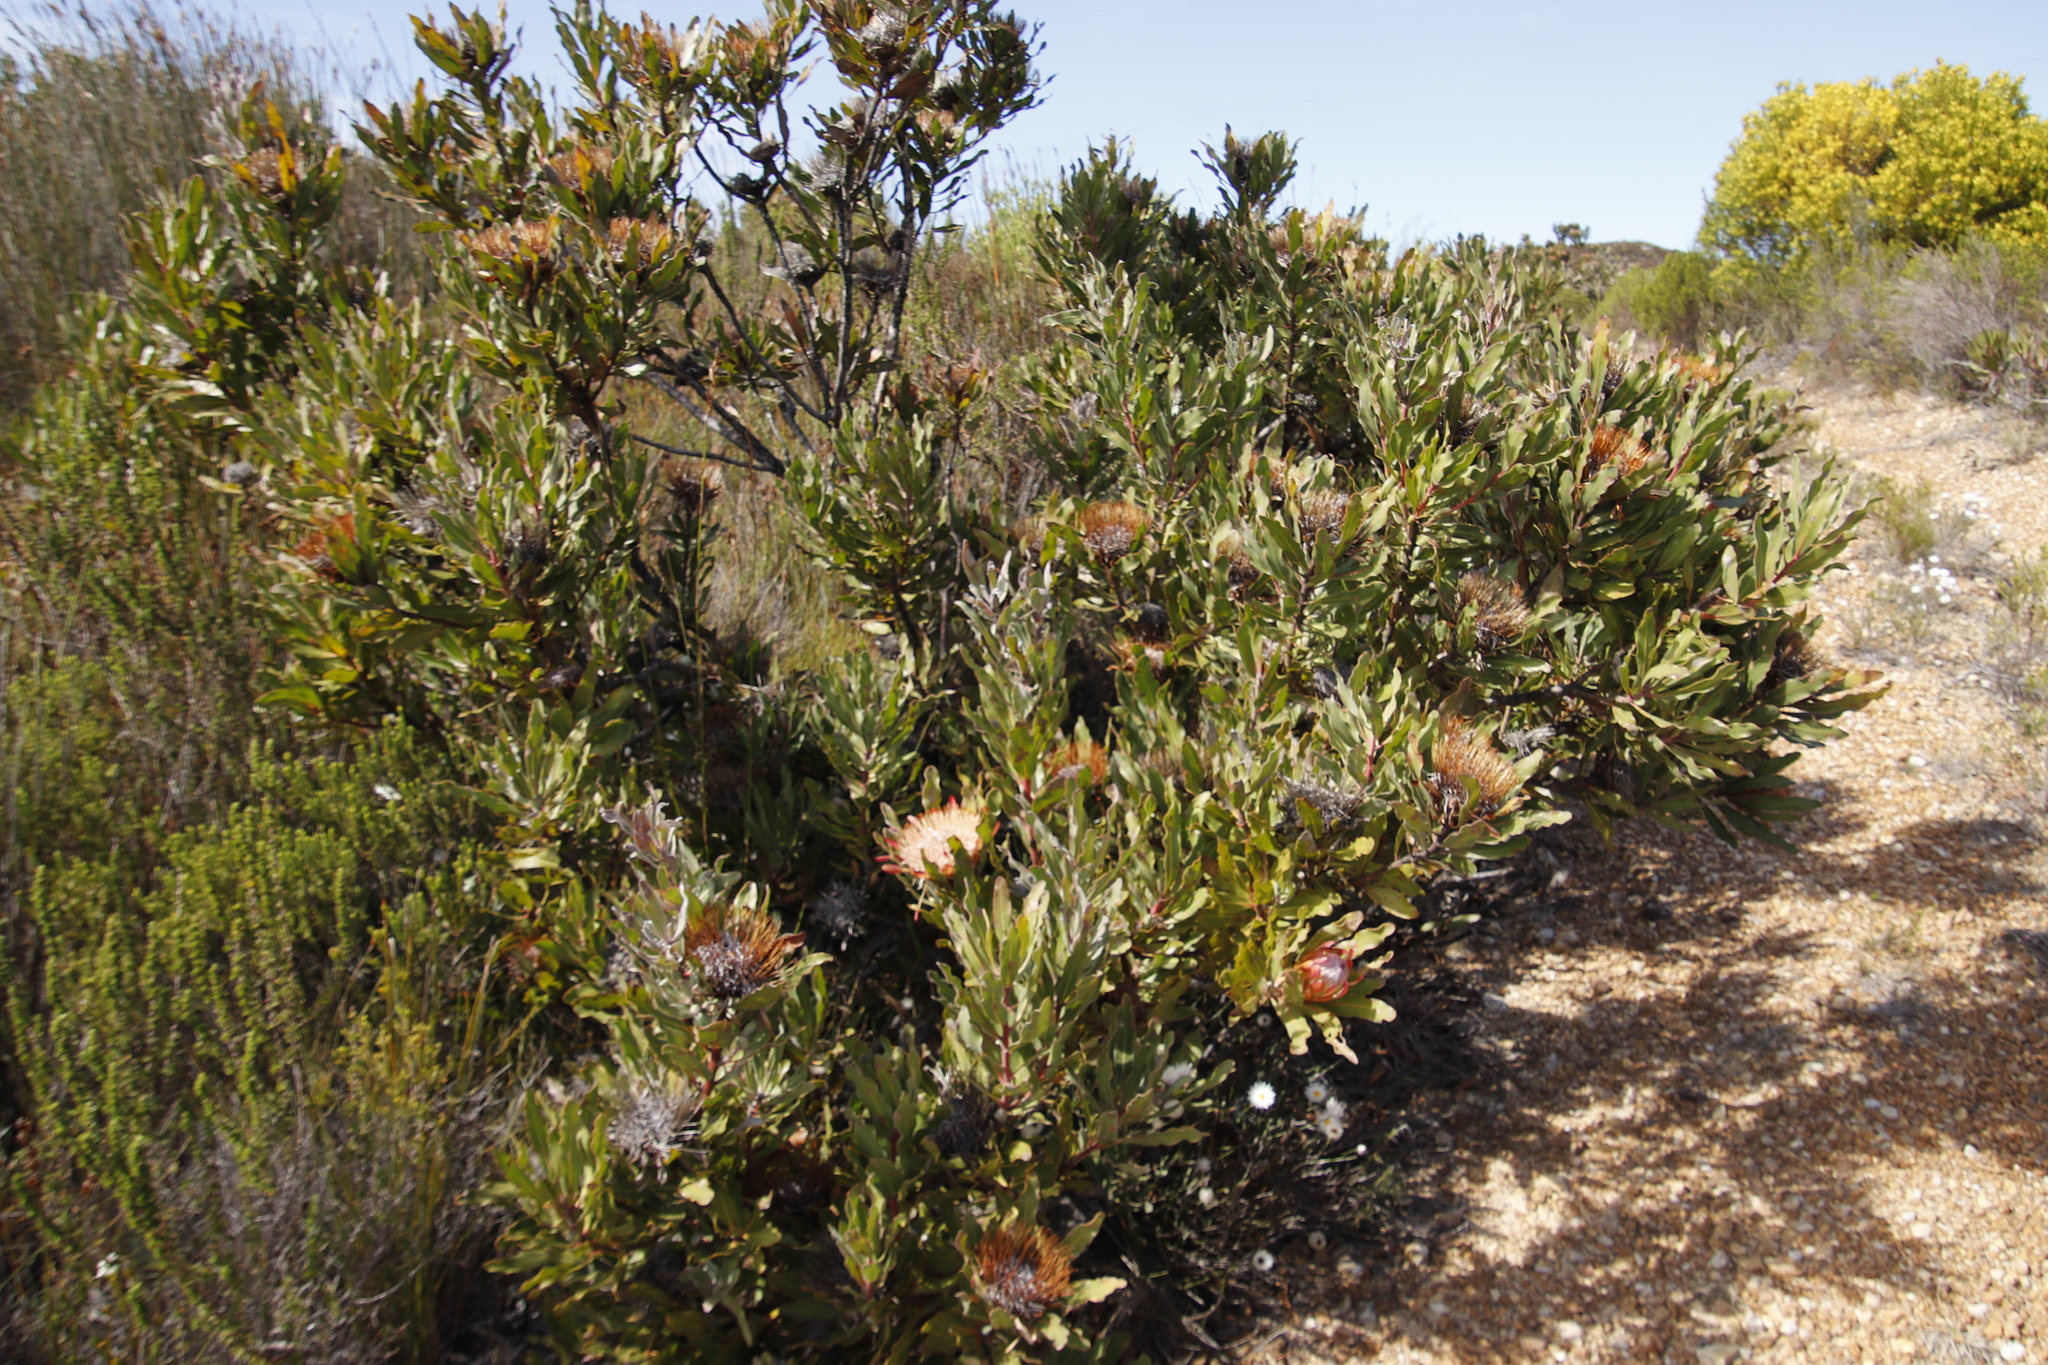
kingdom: Plantae
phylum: Tracheophyta
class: Magnoliopsida
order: Proteales
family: Proteaceae
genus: Protea
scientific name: Protea susannae
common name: Foetid-leaf sugarbush
